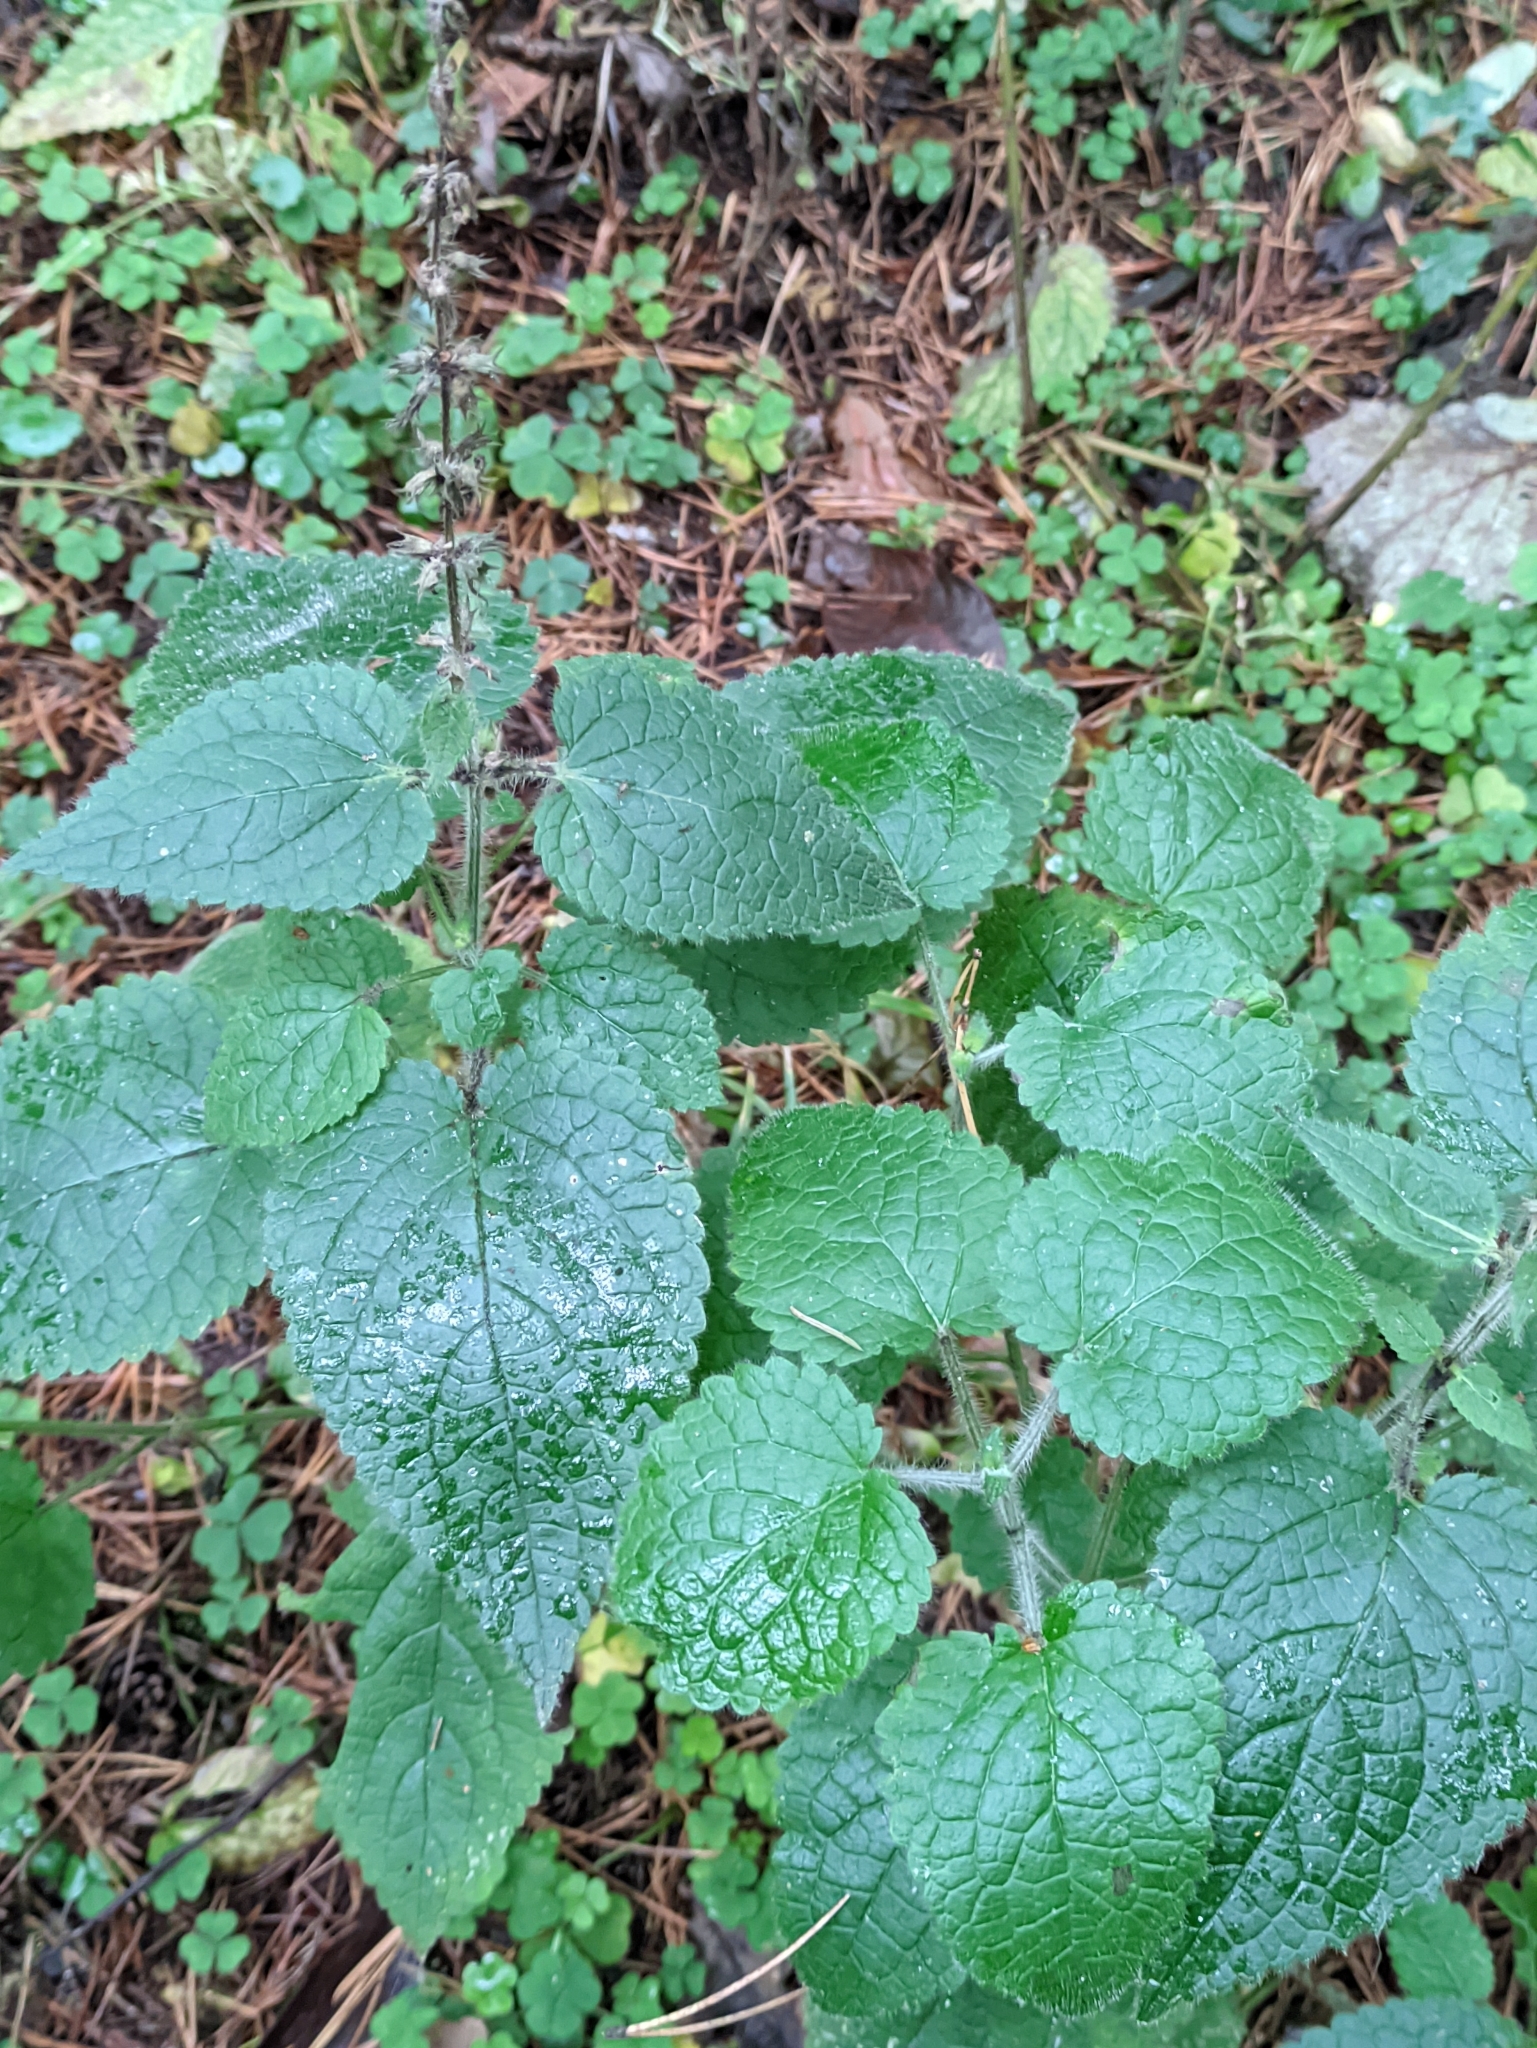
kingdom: Plantae
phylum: Tracheophyta
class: Magnoliopsida
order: Lamiales
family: Lamiaceae
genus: Stachys
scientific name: Stachys sylvatica
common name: Hedge woundwort
